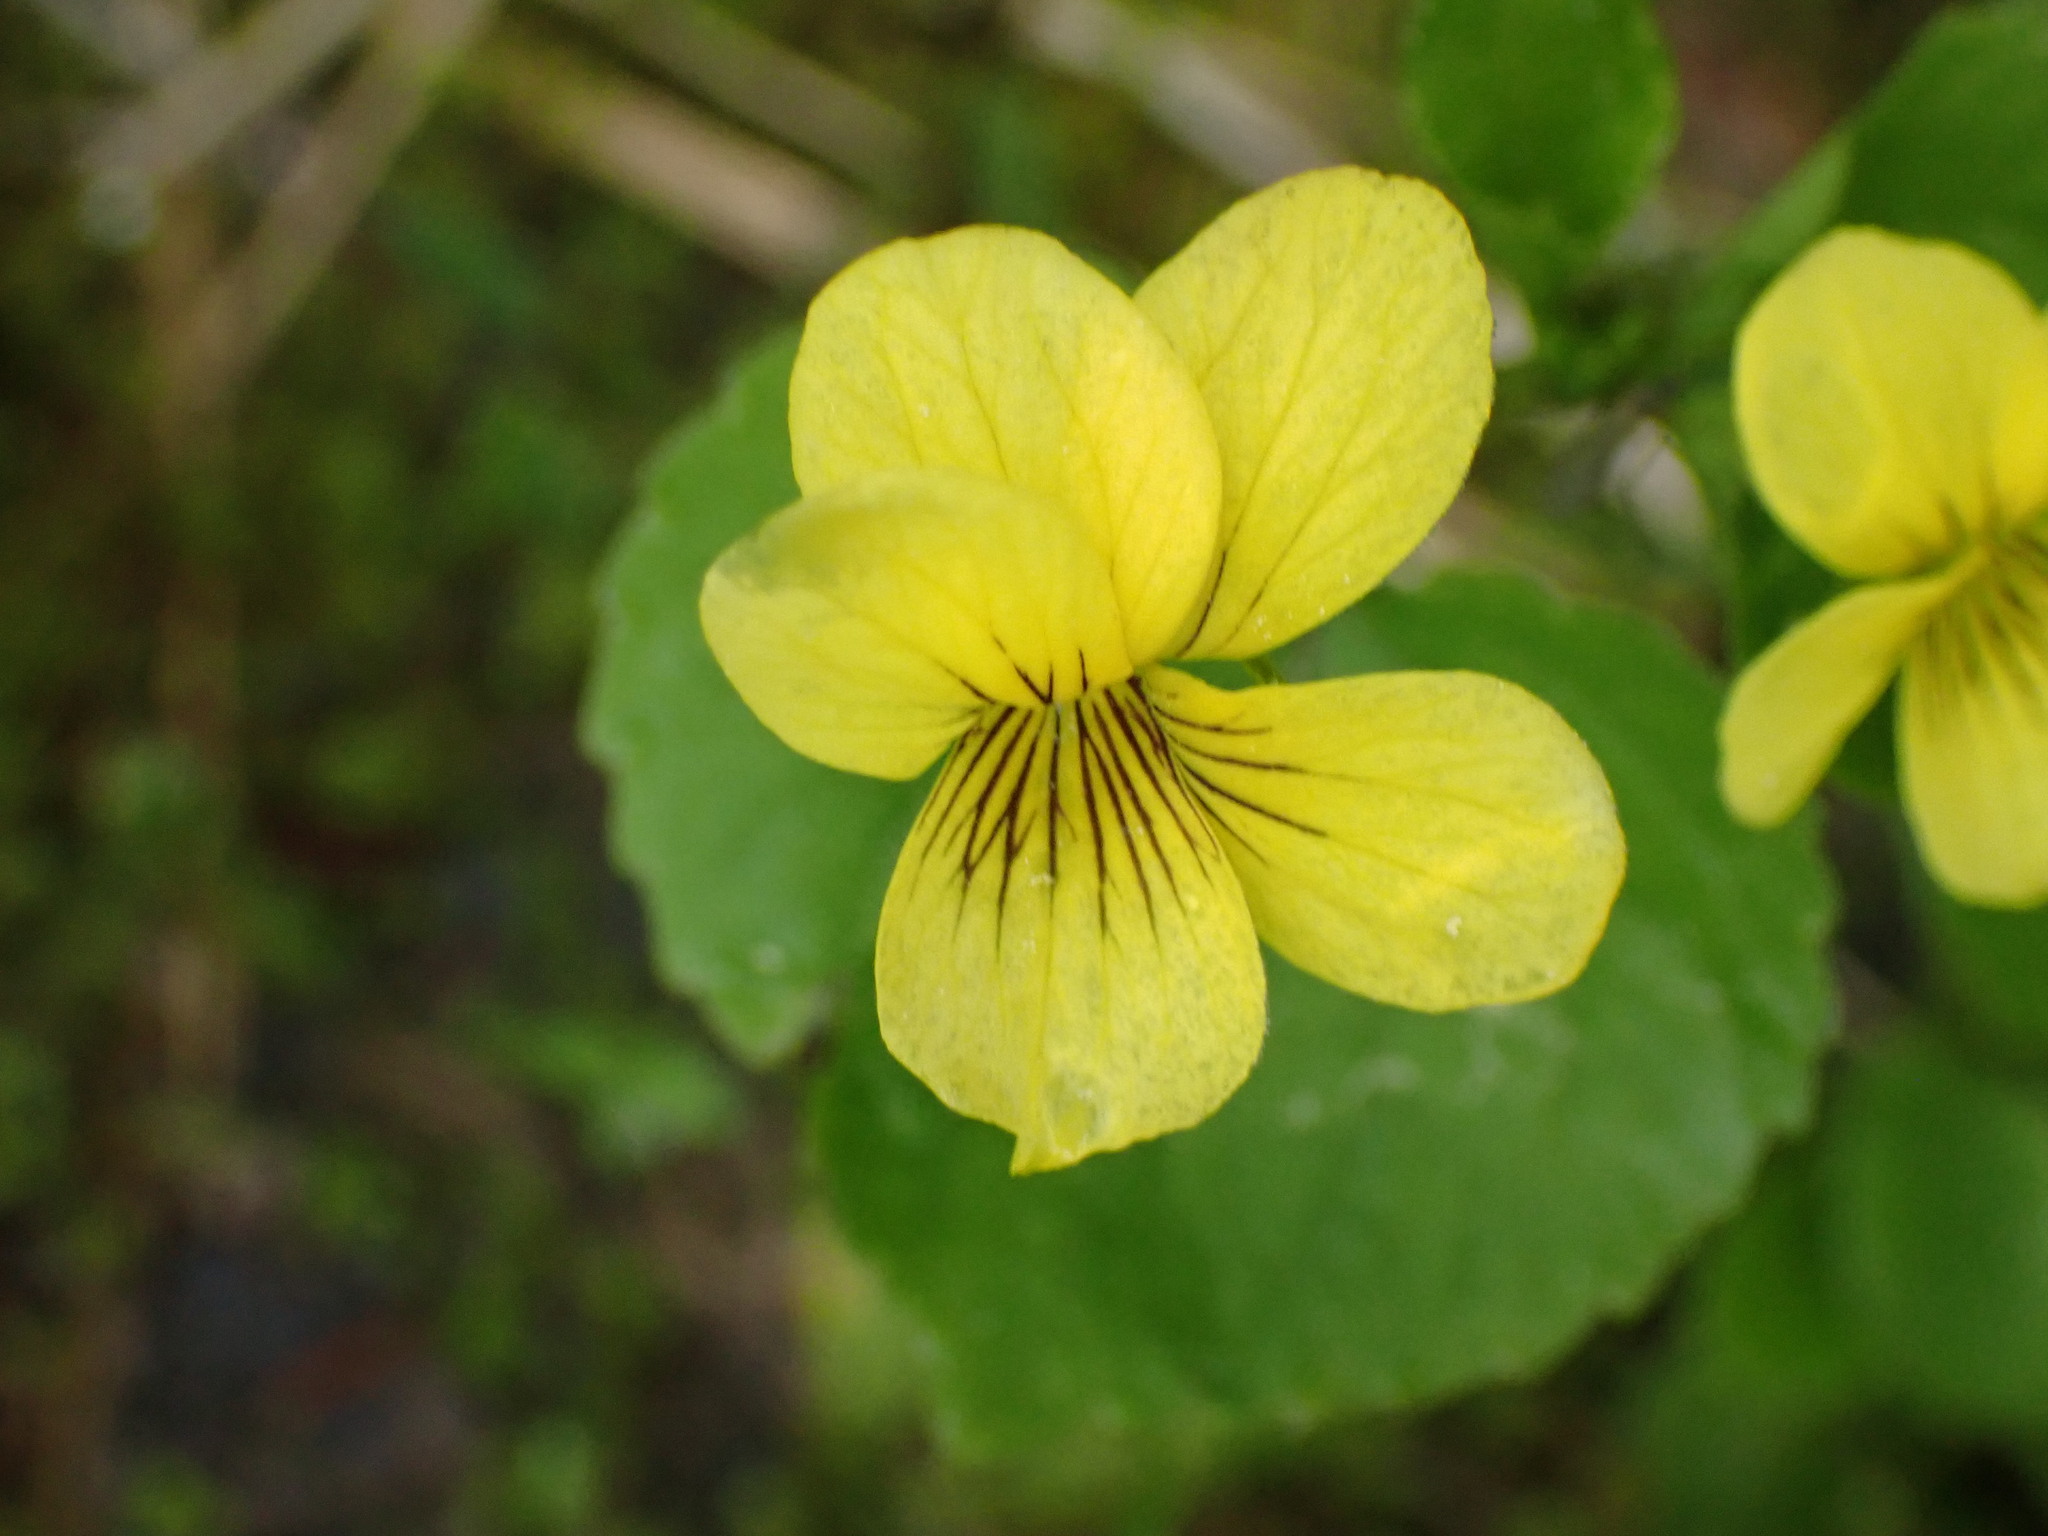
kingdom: Plantae
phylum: Tracheophyta
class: Magnoliopsida
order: Malpighiales
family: Violaceae
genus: Viola
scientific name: Viola glabella
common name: Stream violet
